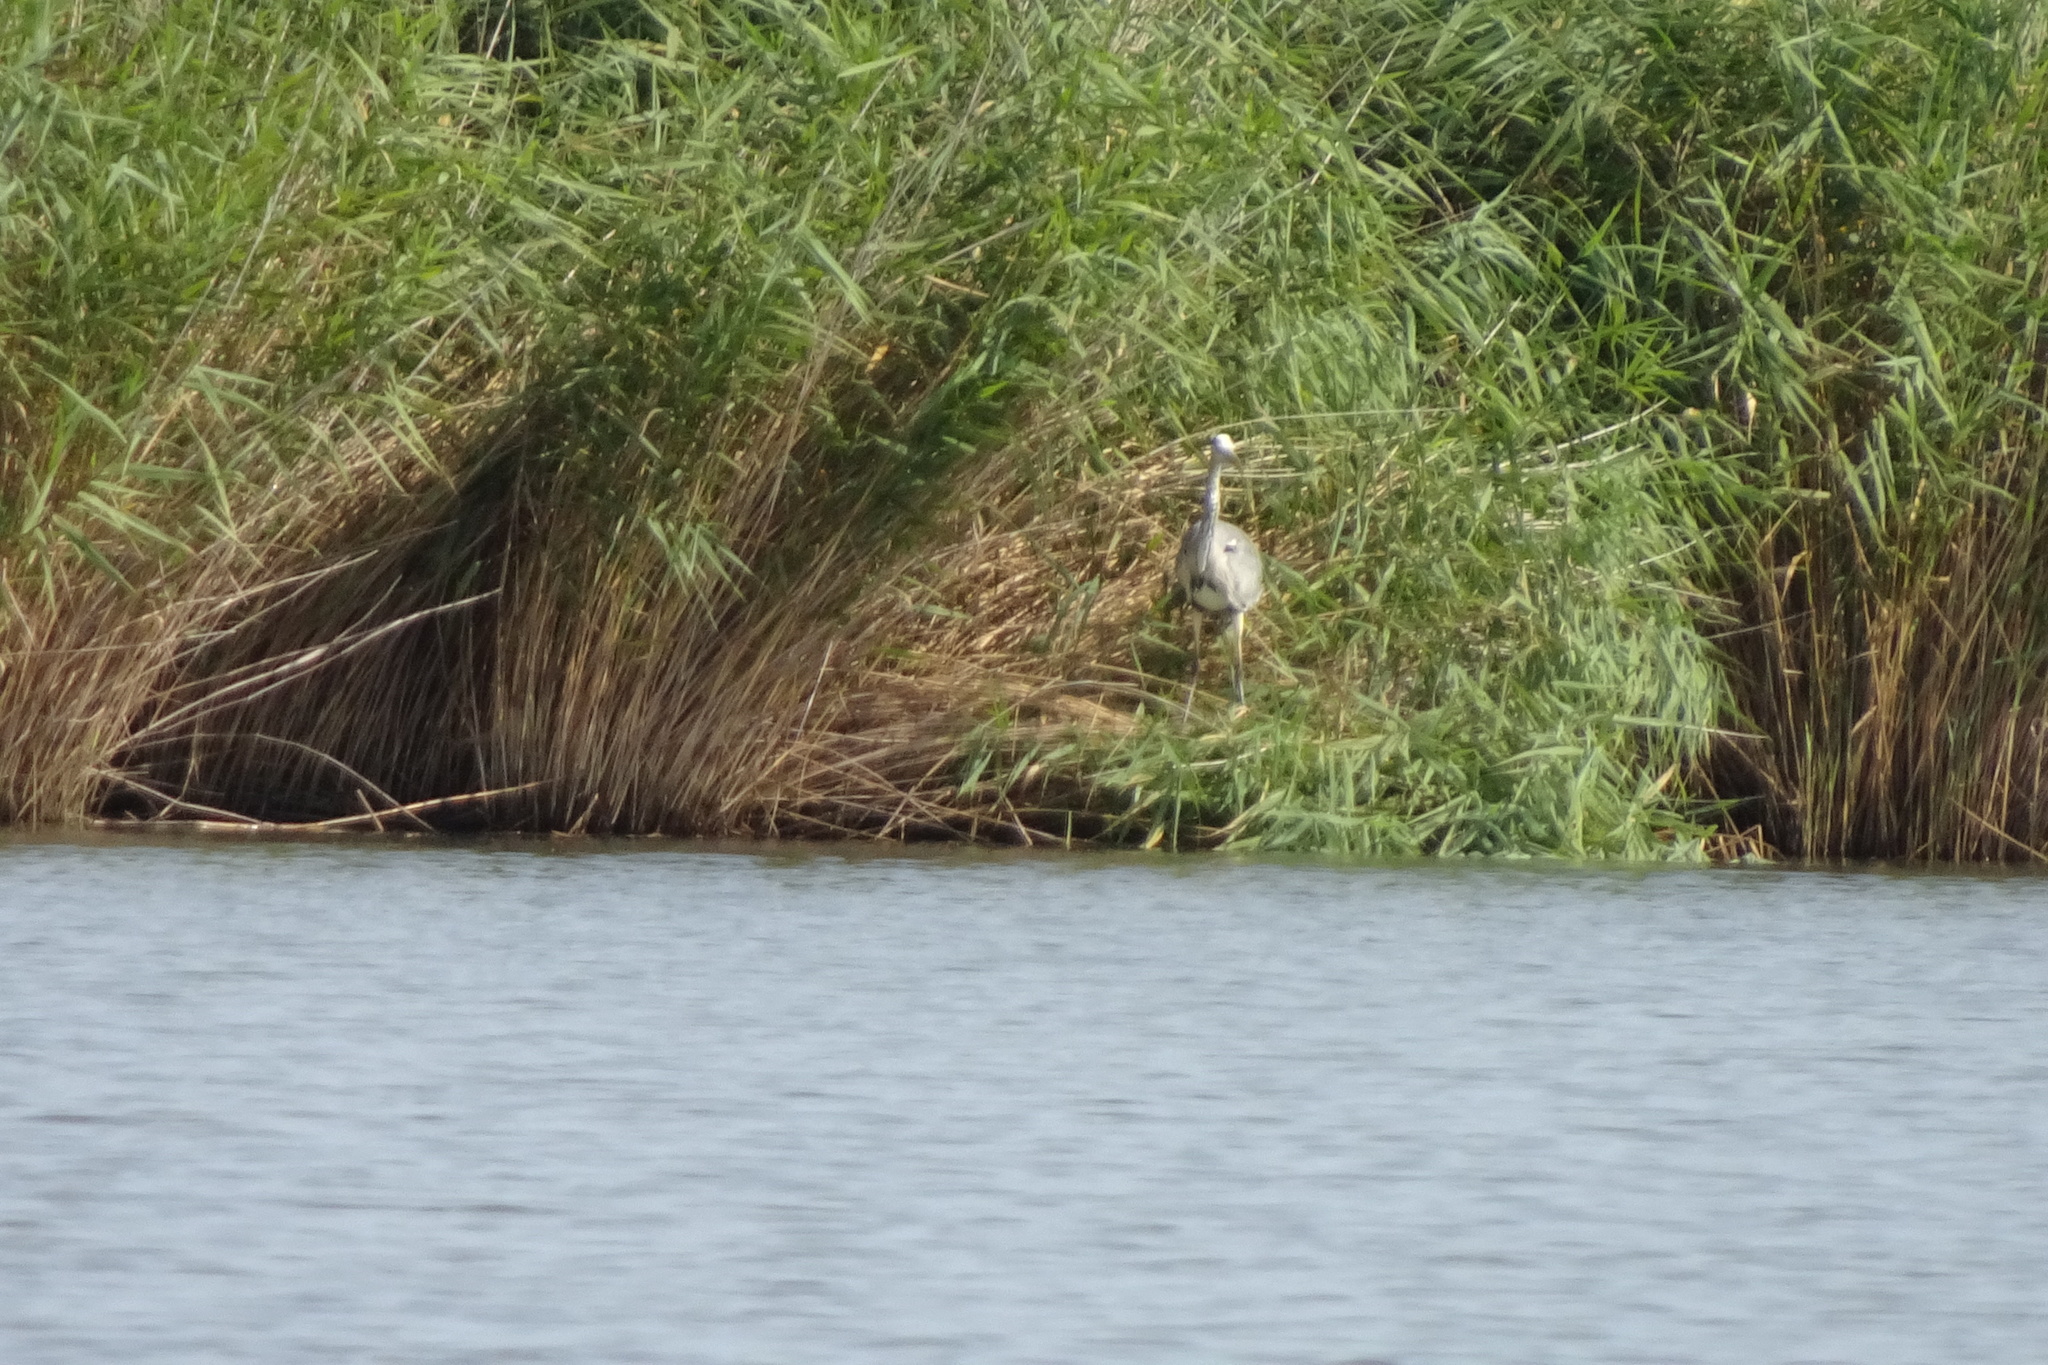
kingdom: Animalia
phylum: Chordata
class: Aves
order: Pelecaniformes
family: Ardeidae
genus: Ardea
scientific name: Ardea cinerea
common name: Grey heron
